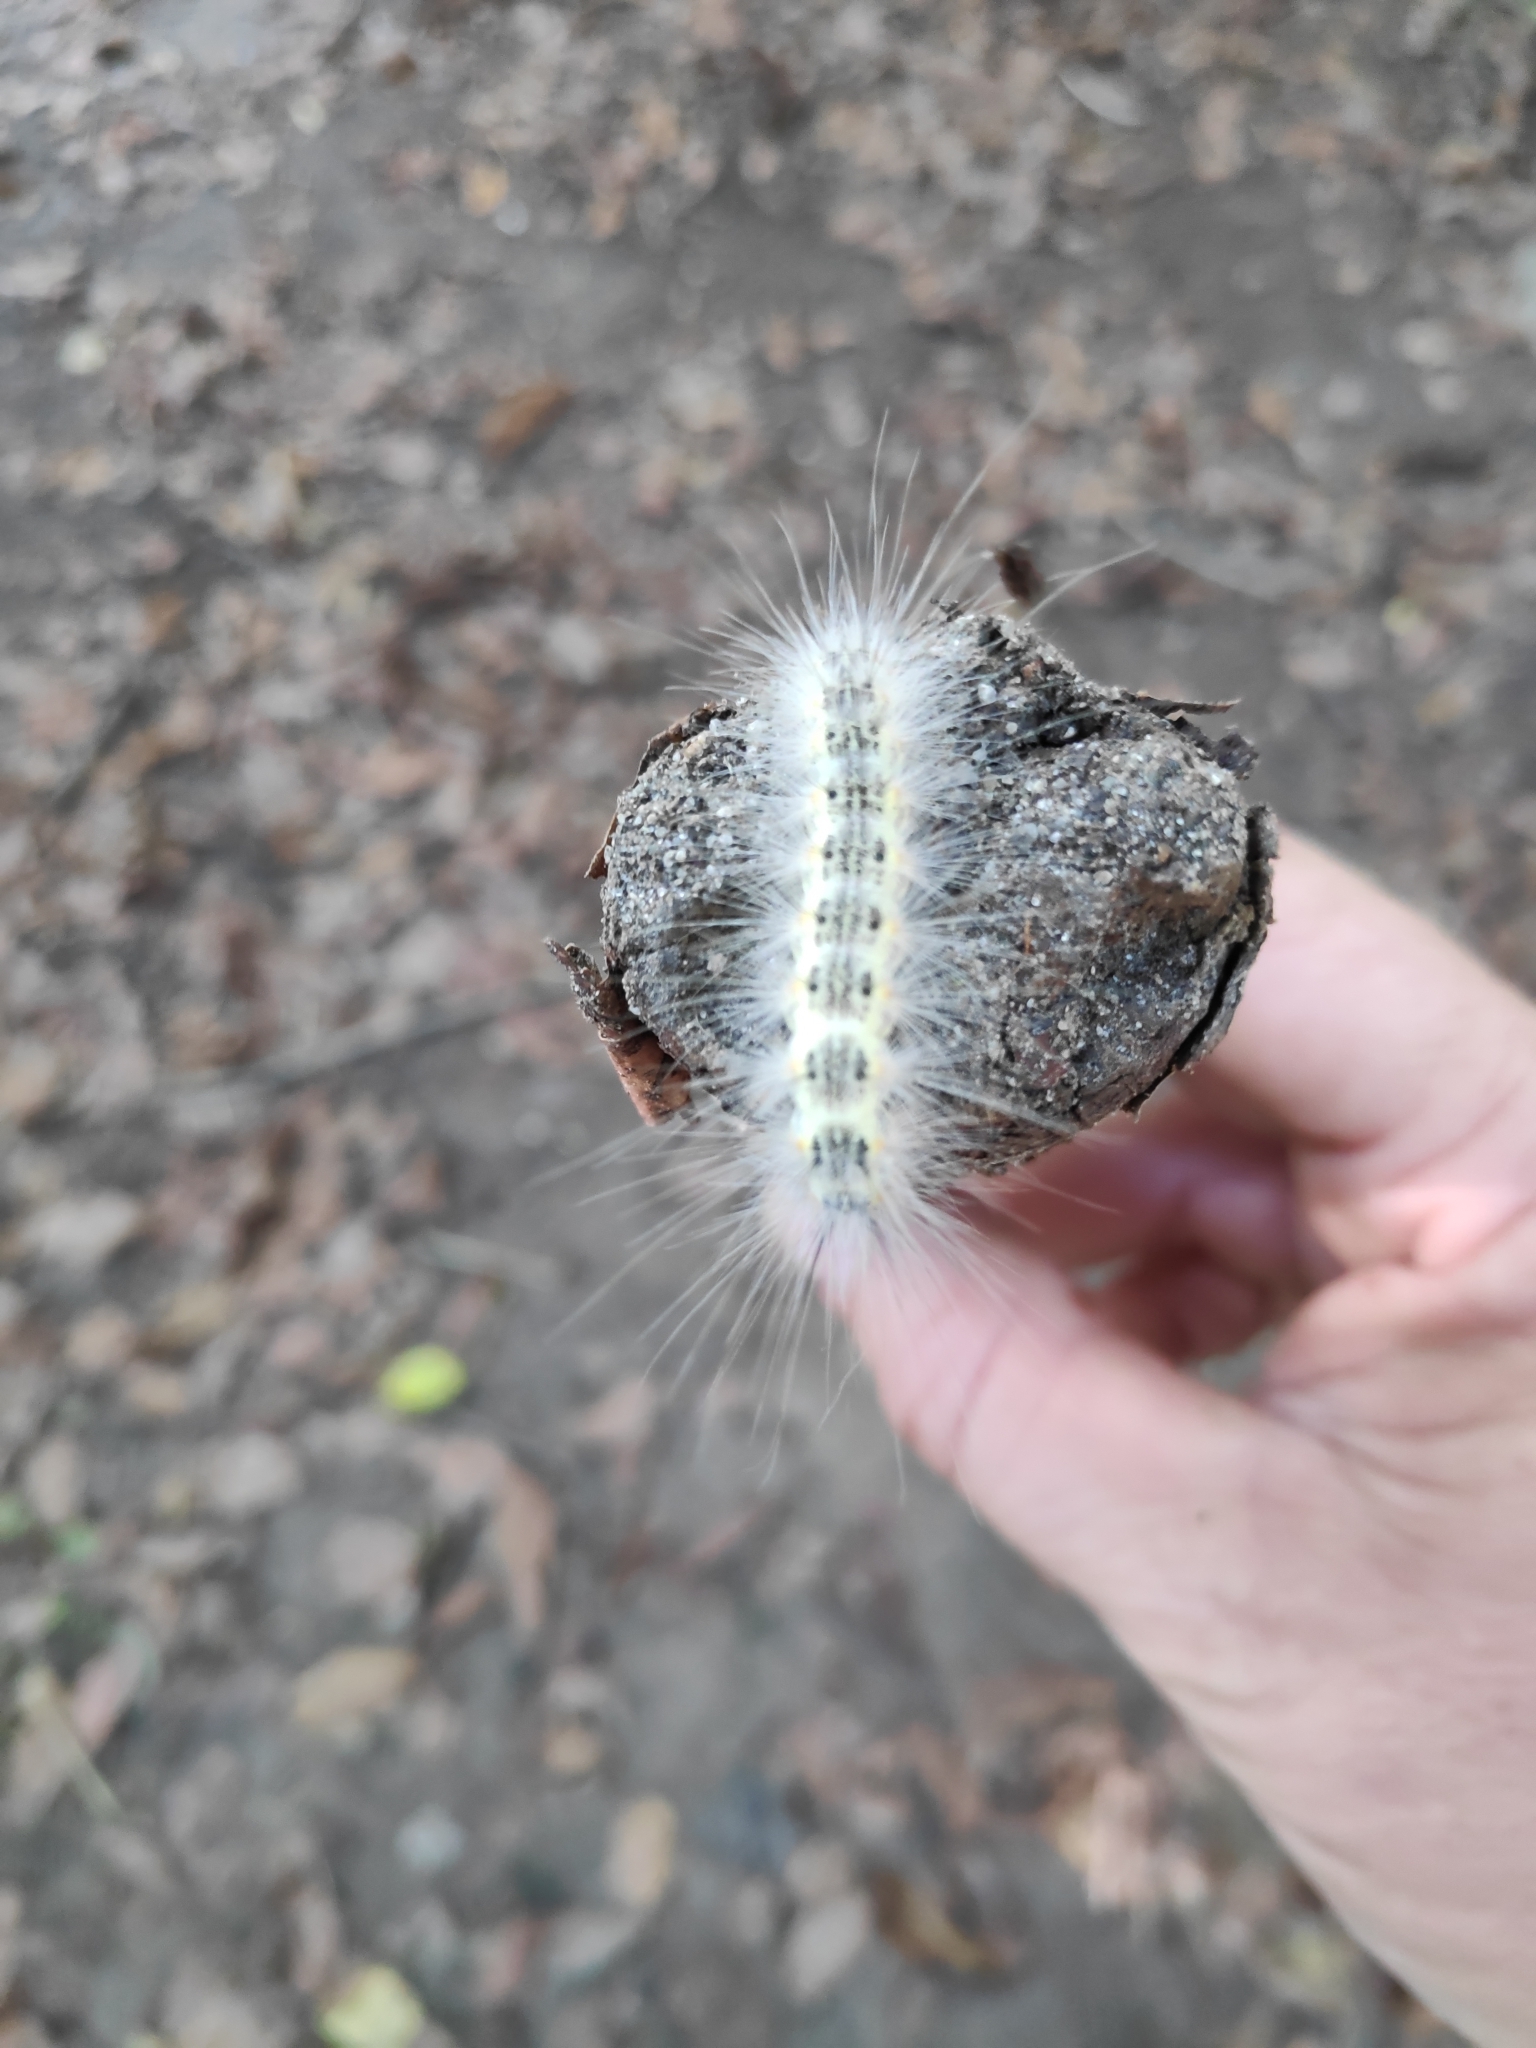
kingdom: Animalia
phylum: Arthropoda
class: Insecta
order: Lepidoptera
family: Erebidae
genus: Hyphantria
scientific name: Hyphantria cunea
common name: American white moth
